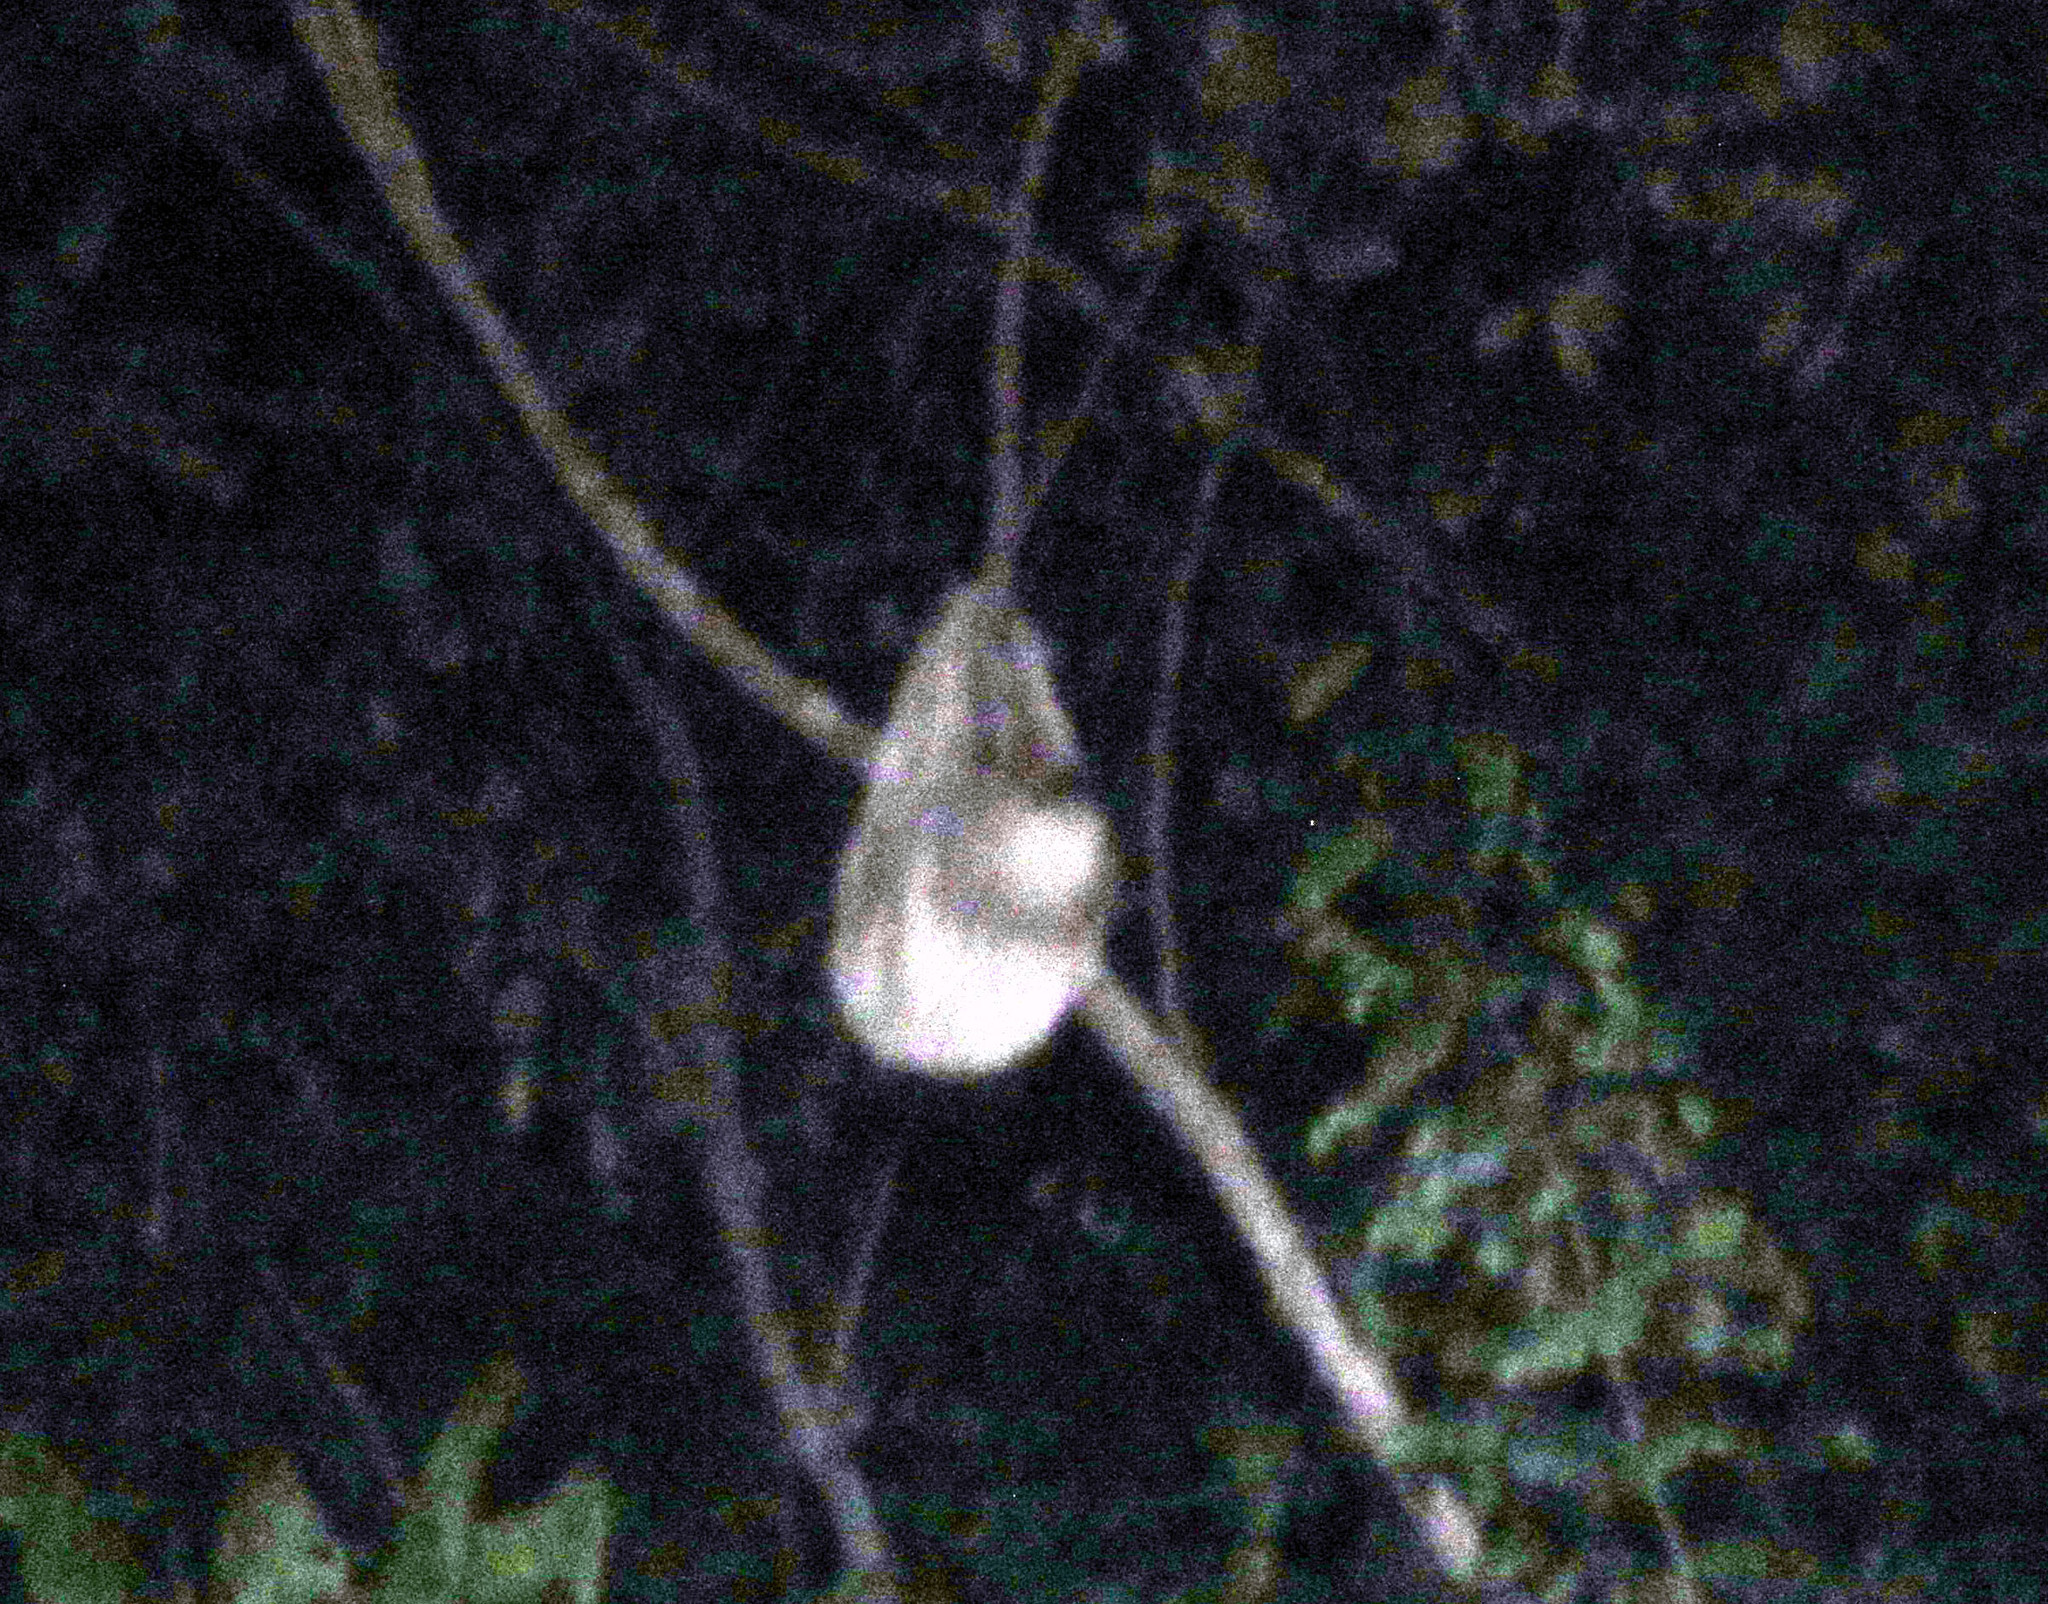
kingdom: Animalia
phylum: Chordata
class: Mammalia
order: Pilosa
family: Megalonychidae
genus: Choloepus
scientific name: Choloepus hoffmanni
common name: Hoffmann's two-toed sloth
